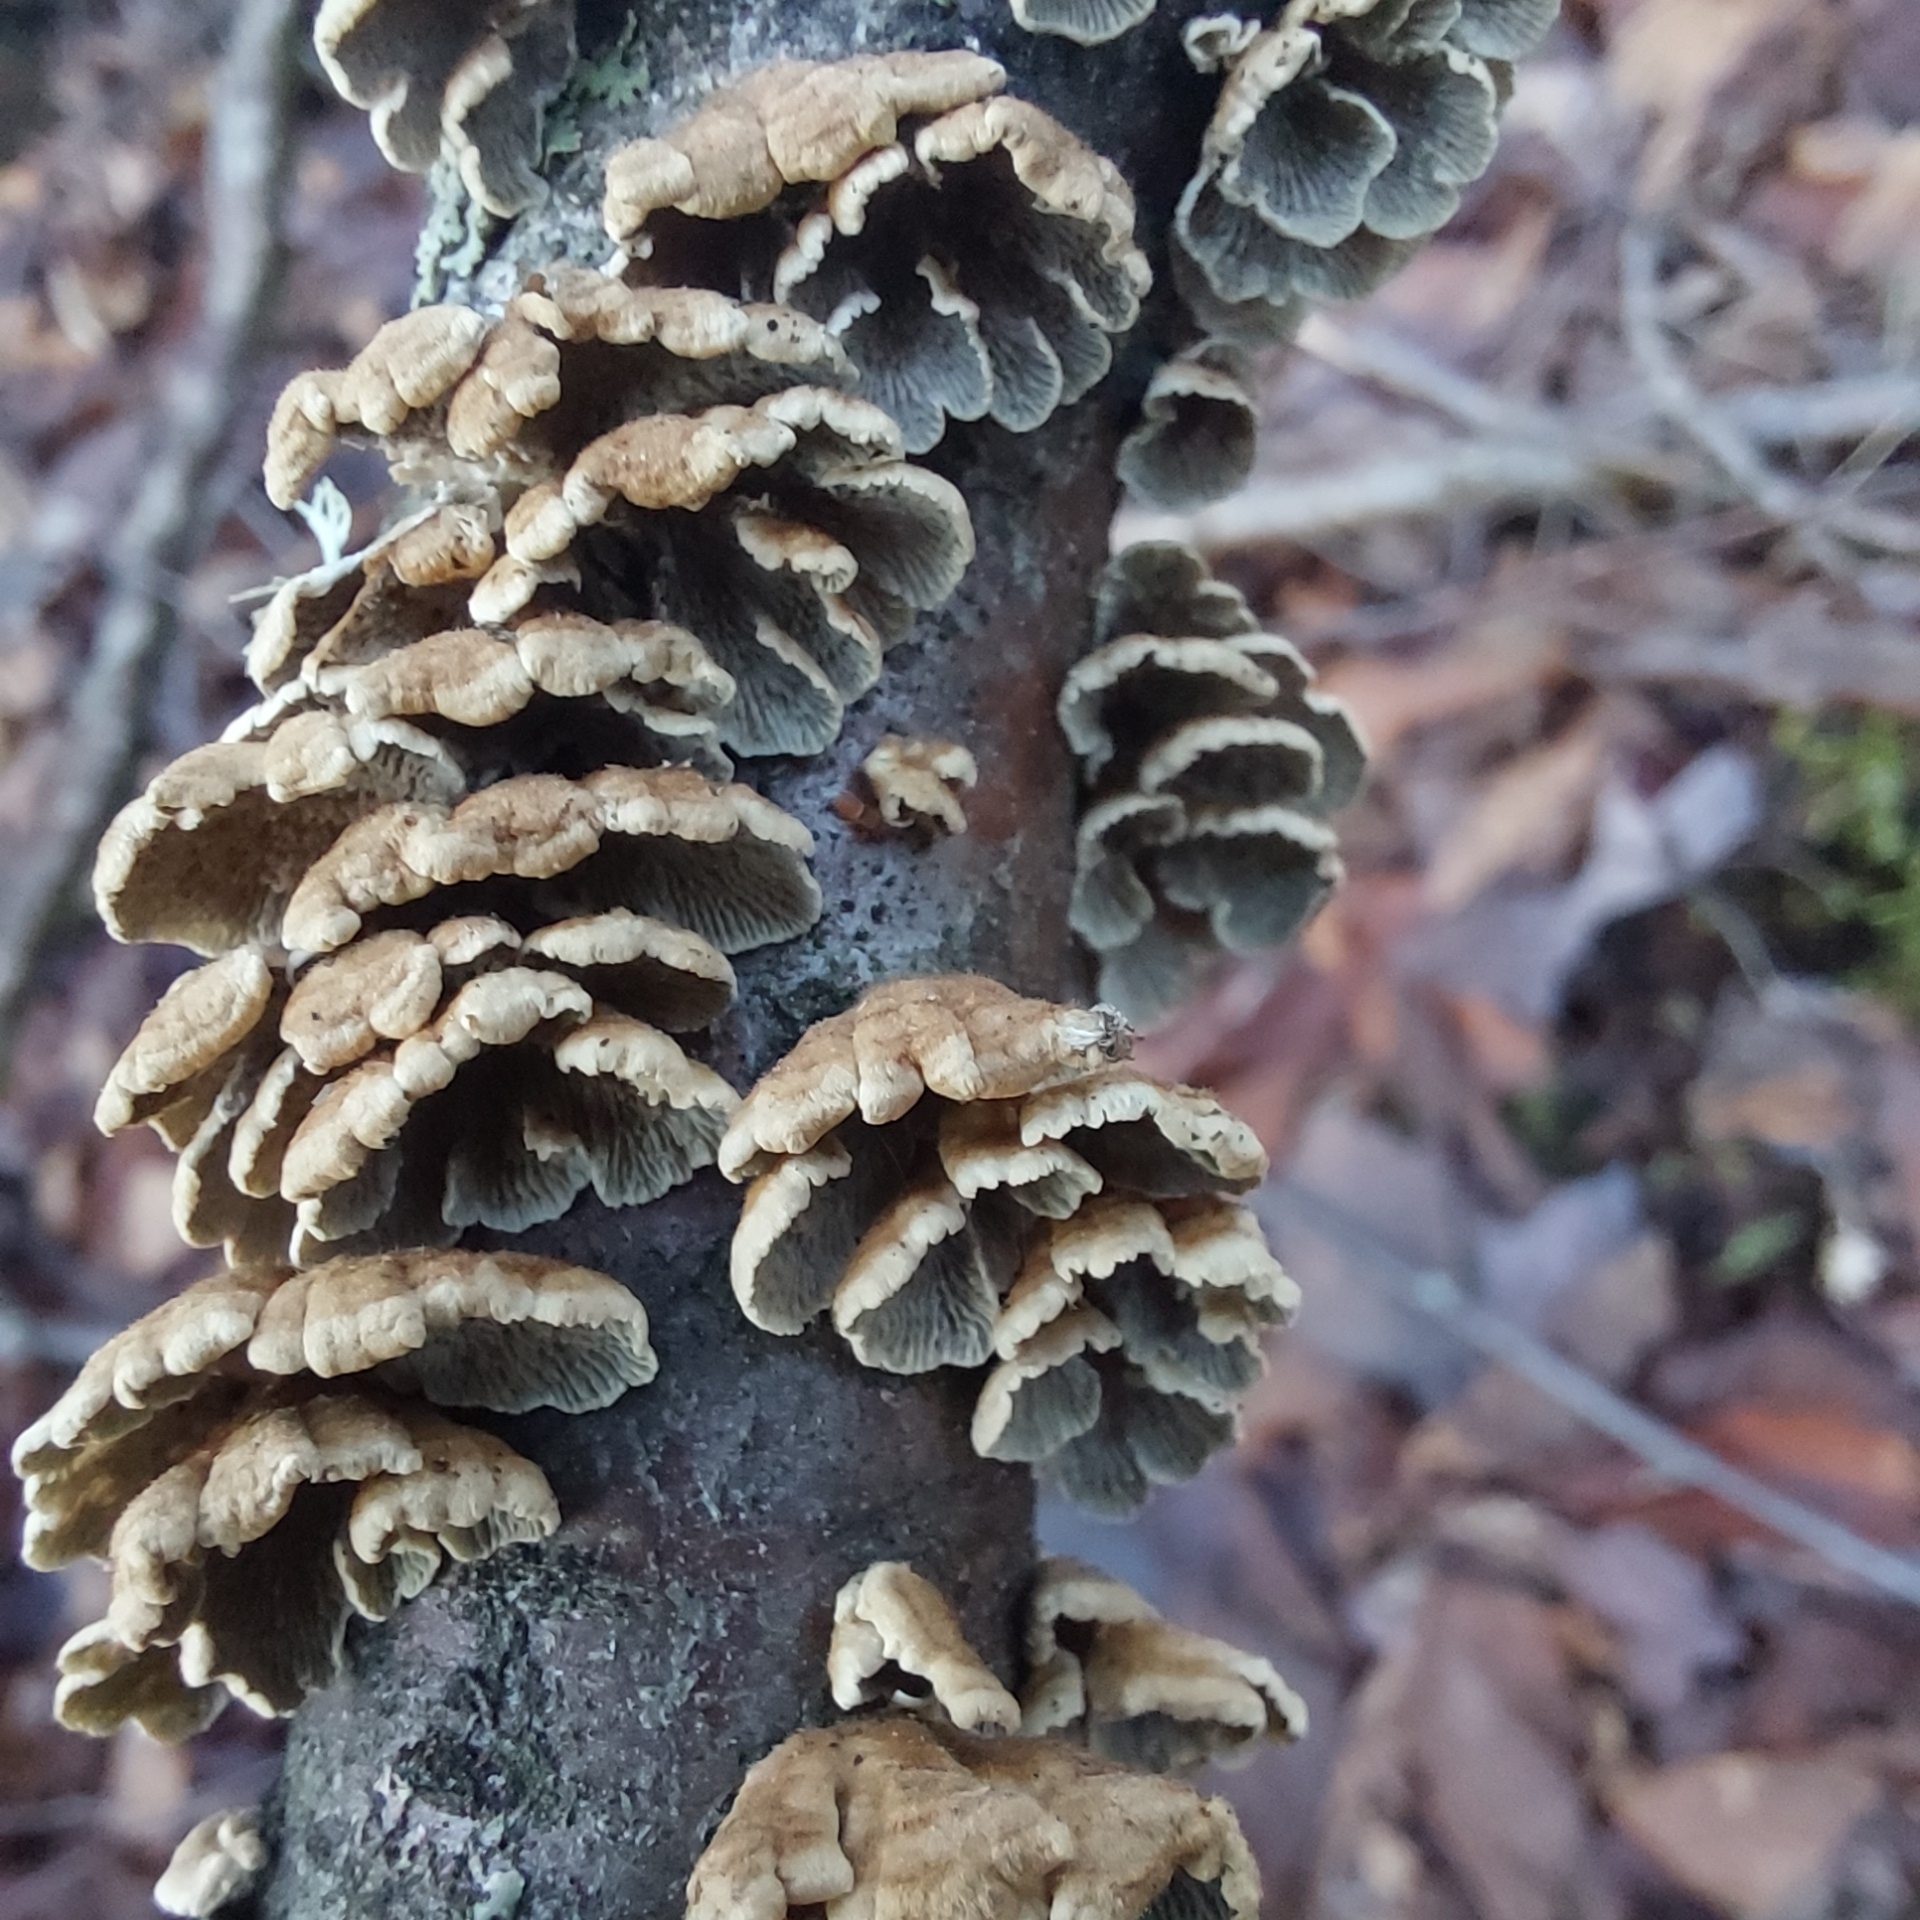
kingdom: Fungi
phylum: Basidiomycota
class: Agaricomycetes
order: Amylocorticiales
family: Amylocorticiaceae
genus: Plicaturopsis
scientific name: Plicaturopsis crispa
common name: Crimped gill
